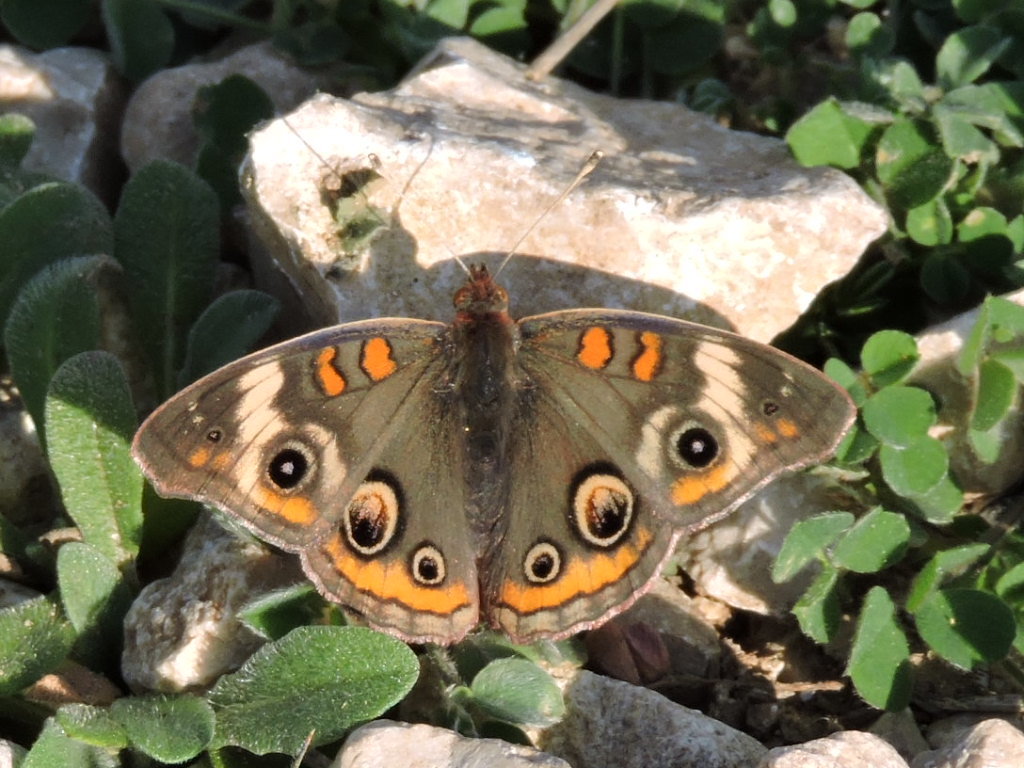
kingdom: Animalia
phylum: Arthropoda
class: Insecta
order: Lepidoptera
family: Nymphalidae
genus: Junonia
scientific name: Junonia coenia
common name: Common buckeye
